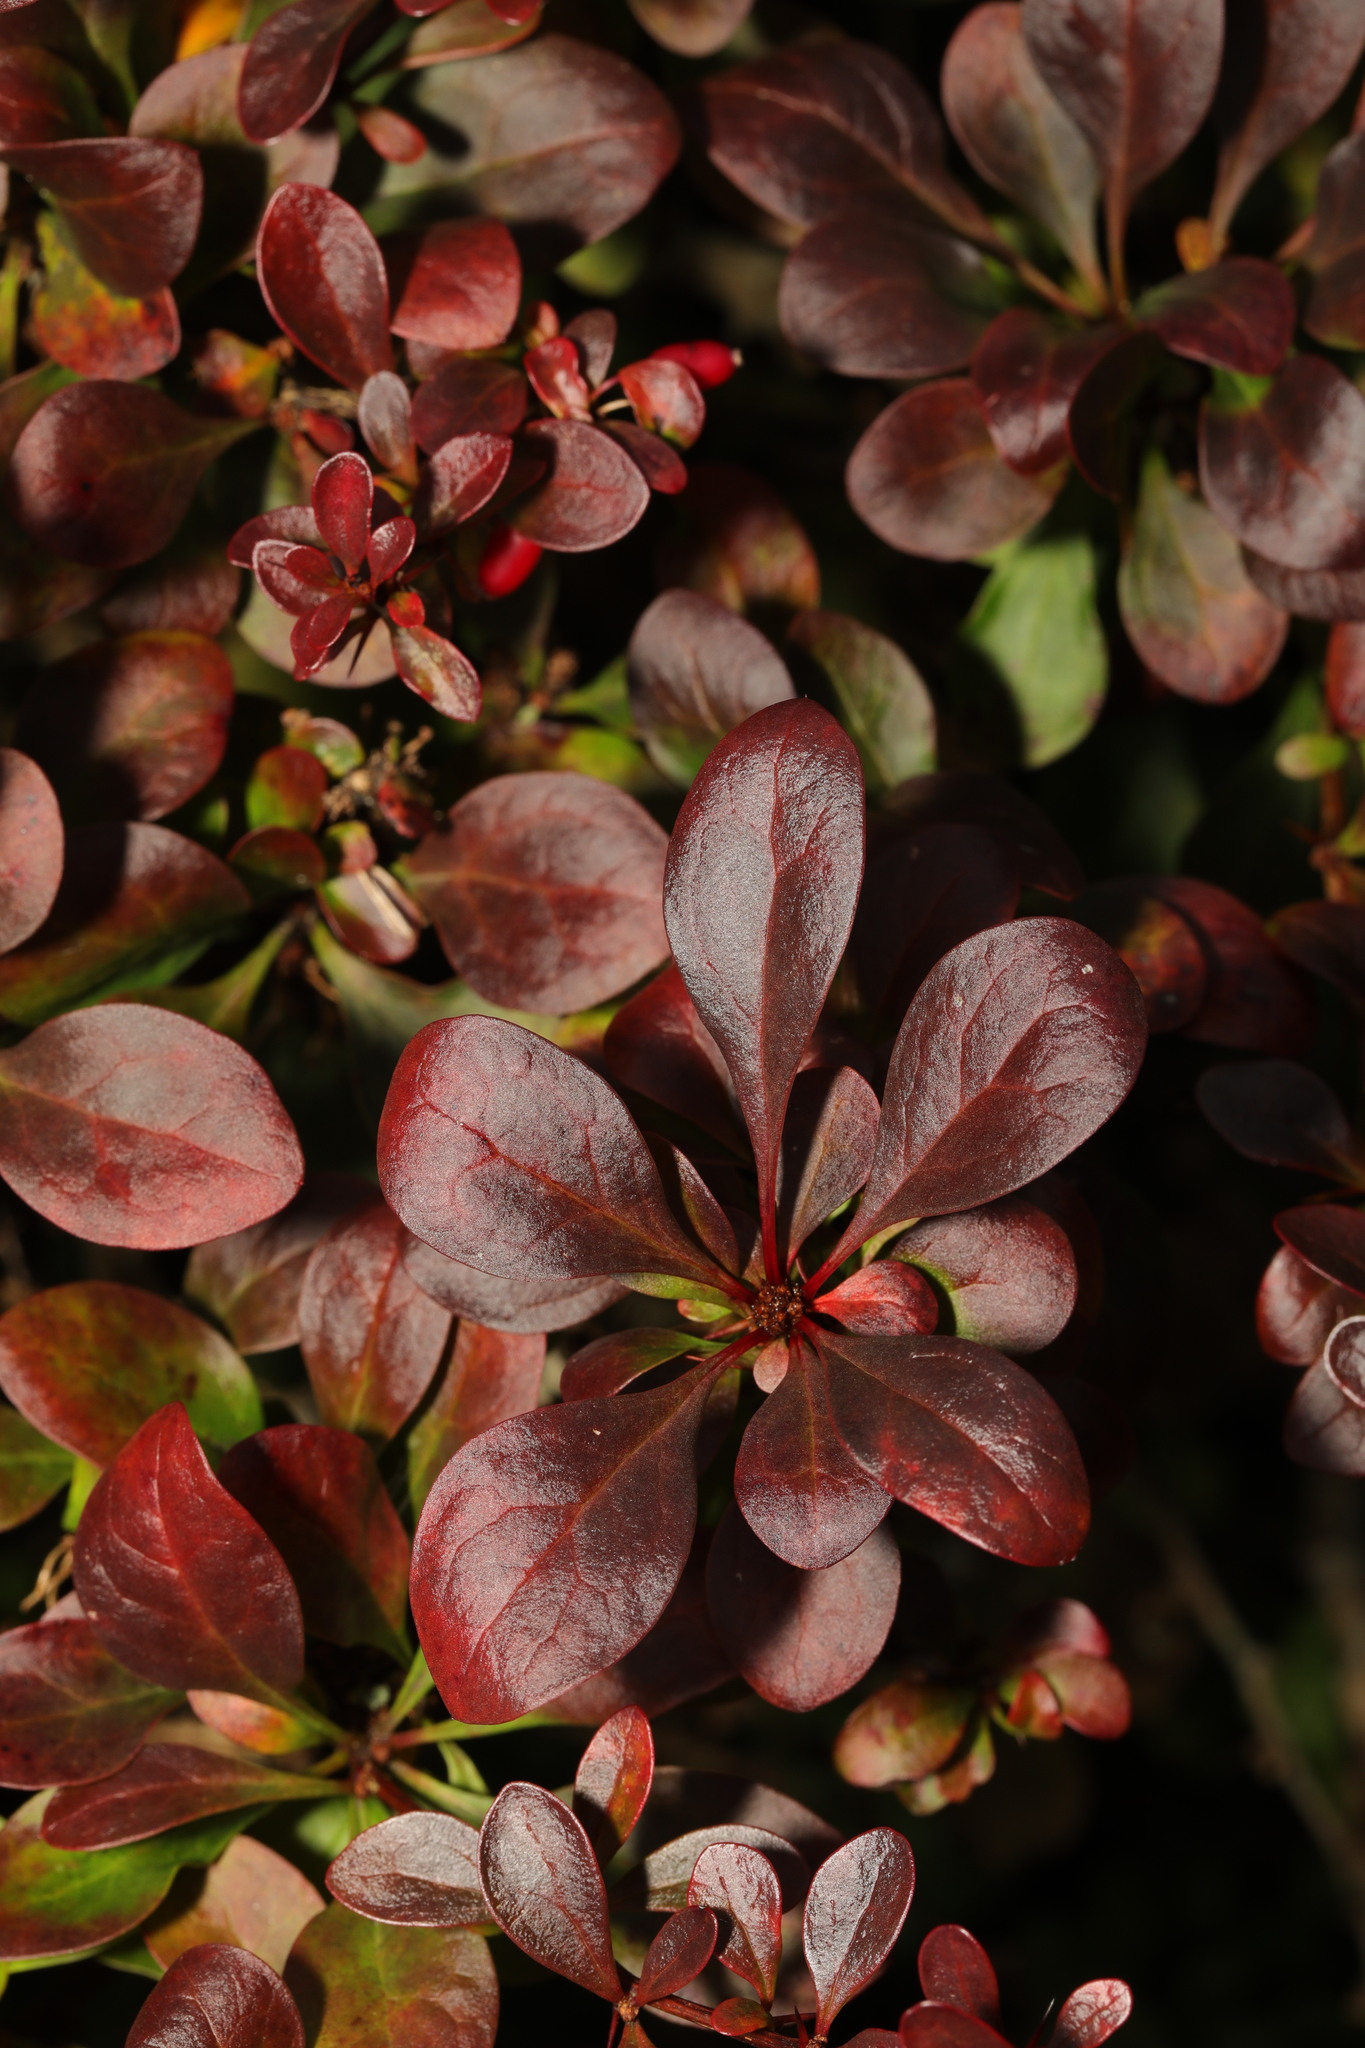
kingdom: Plantae
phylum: Tracheophyta
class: Magnoliopsida
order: Ranunculales
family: Berberidaceae
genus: Berberis
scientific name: Berberis thunbergii
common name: Japanese barberry
